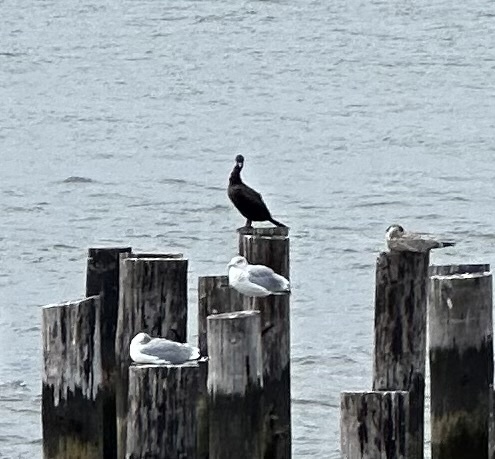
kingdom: Animalia
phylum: Chordata
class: Aves
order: Suliformes
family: Phalacrocoracidae
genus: Phalacrocorax
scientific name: Phalacrocorax auritus
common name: Double-crested cormorant
